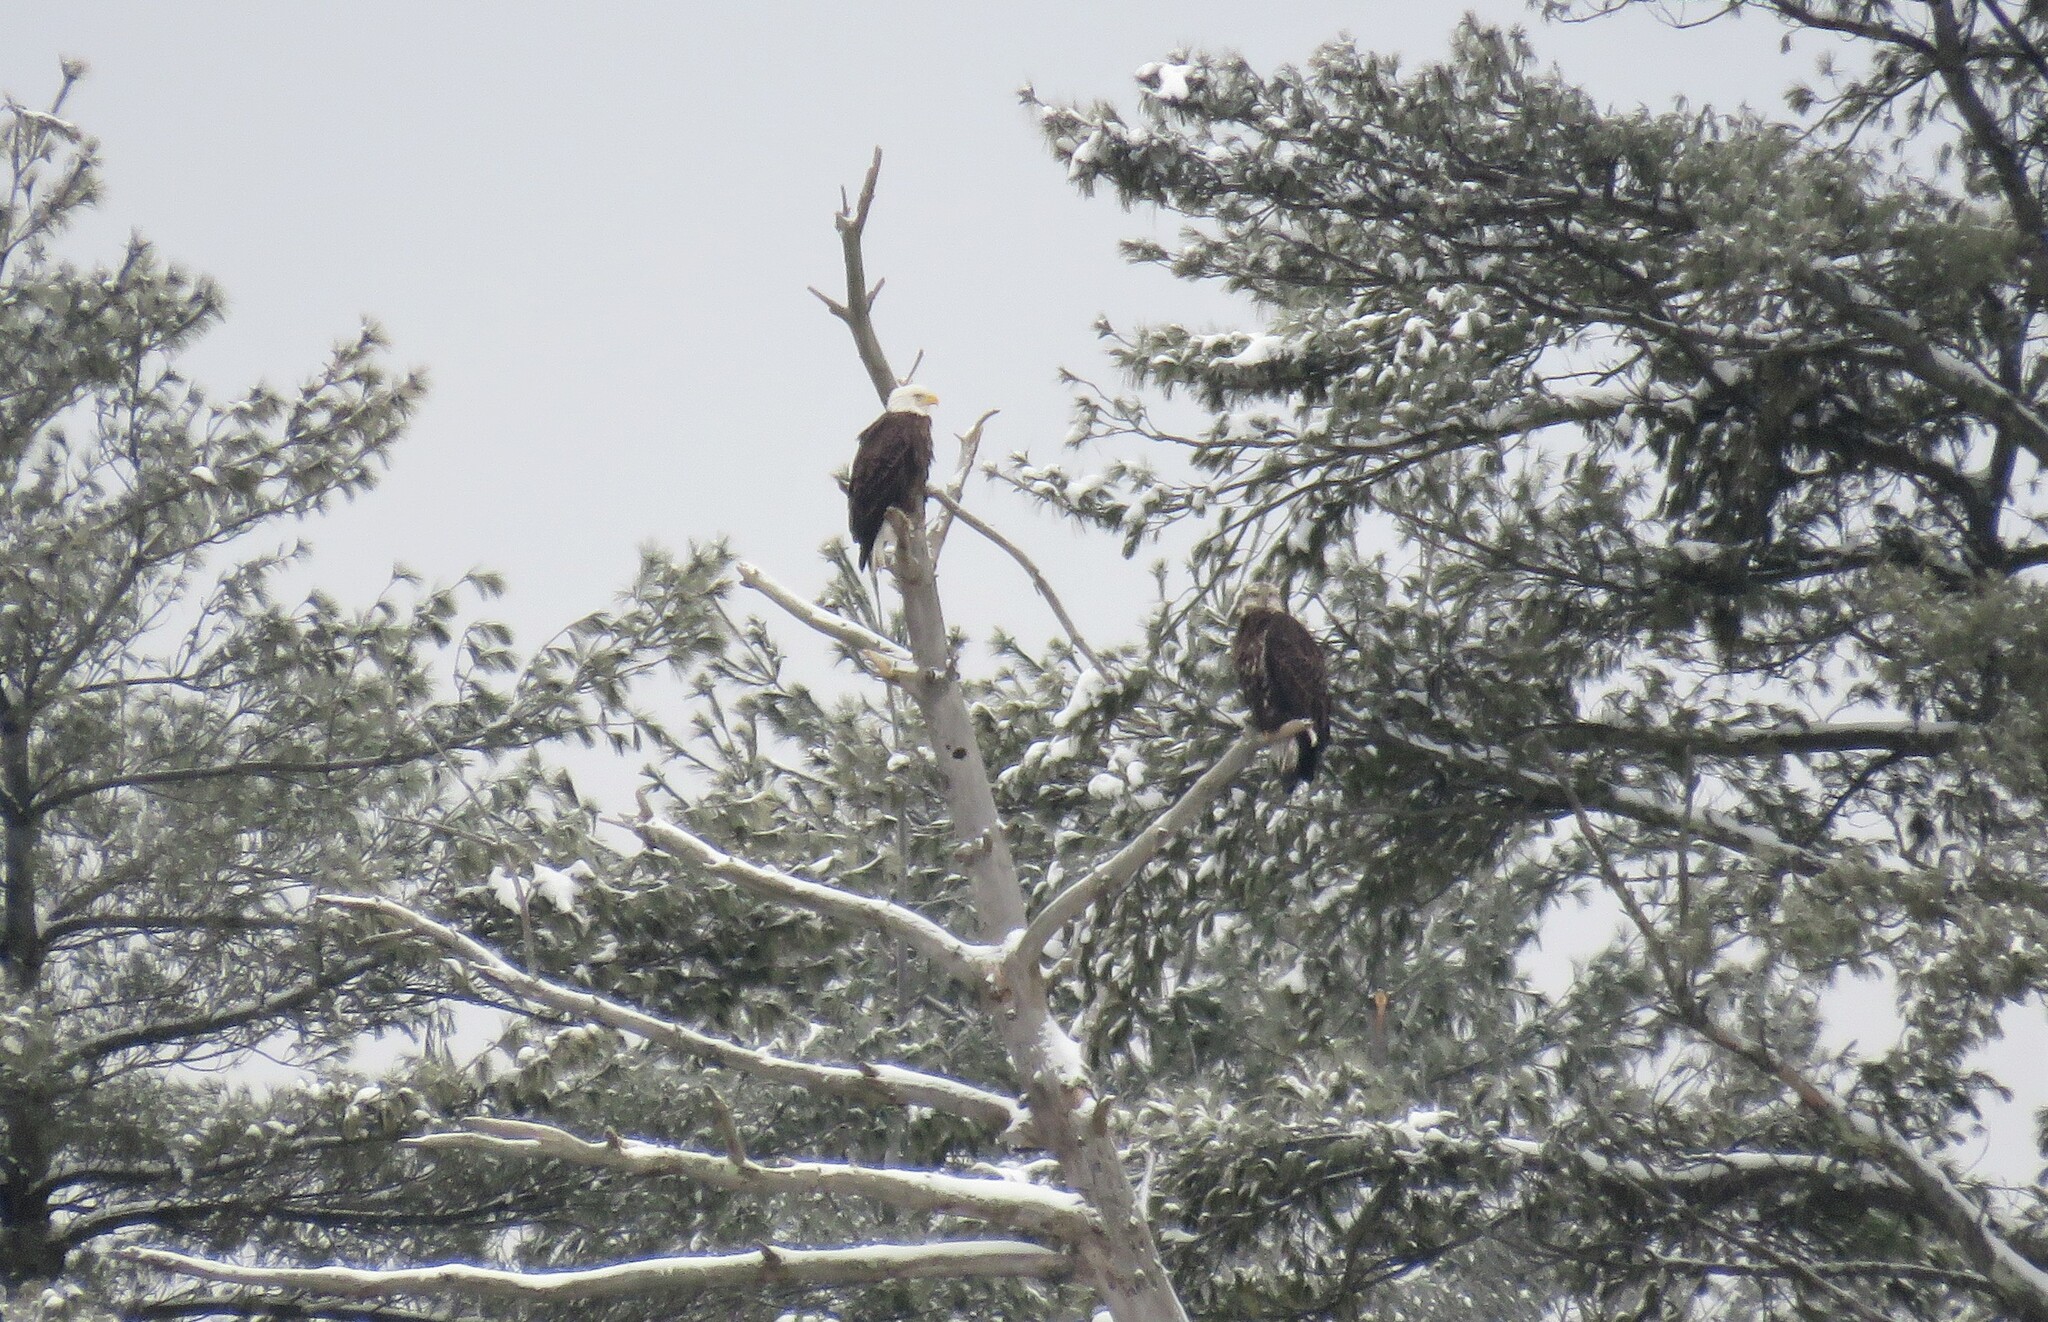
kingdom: Animalia
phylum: Chordata
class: Aves
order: Accipitriformes
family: Accipitridae
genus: Haliaeetus
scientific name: Haliaeetus leucocephalus
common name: Bald eagle
